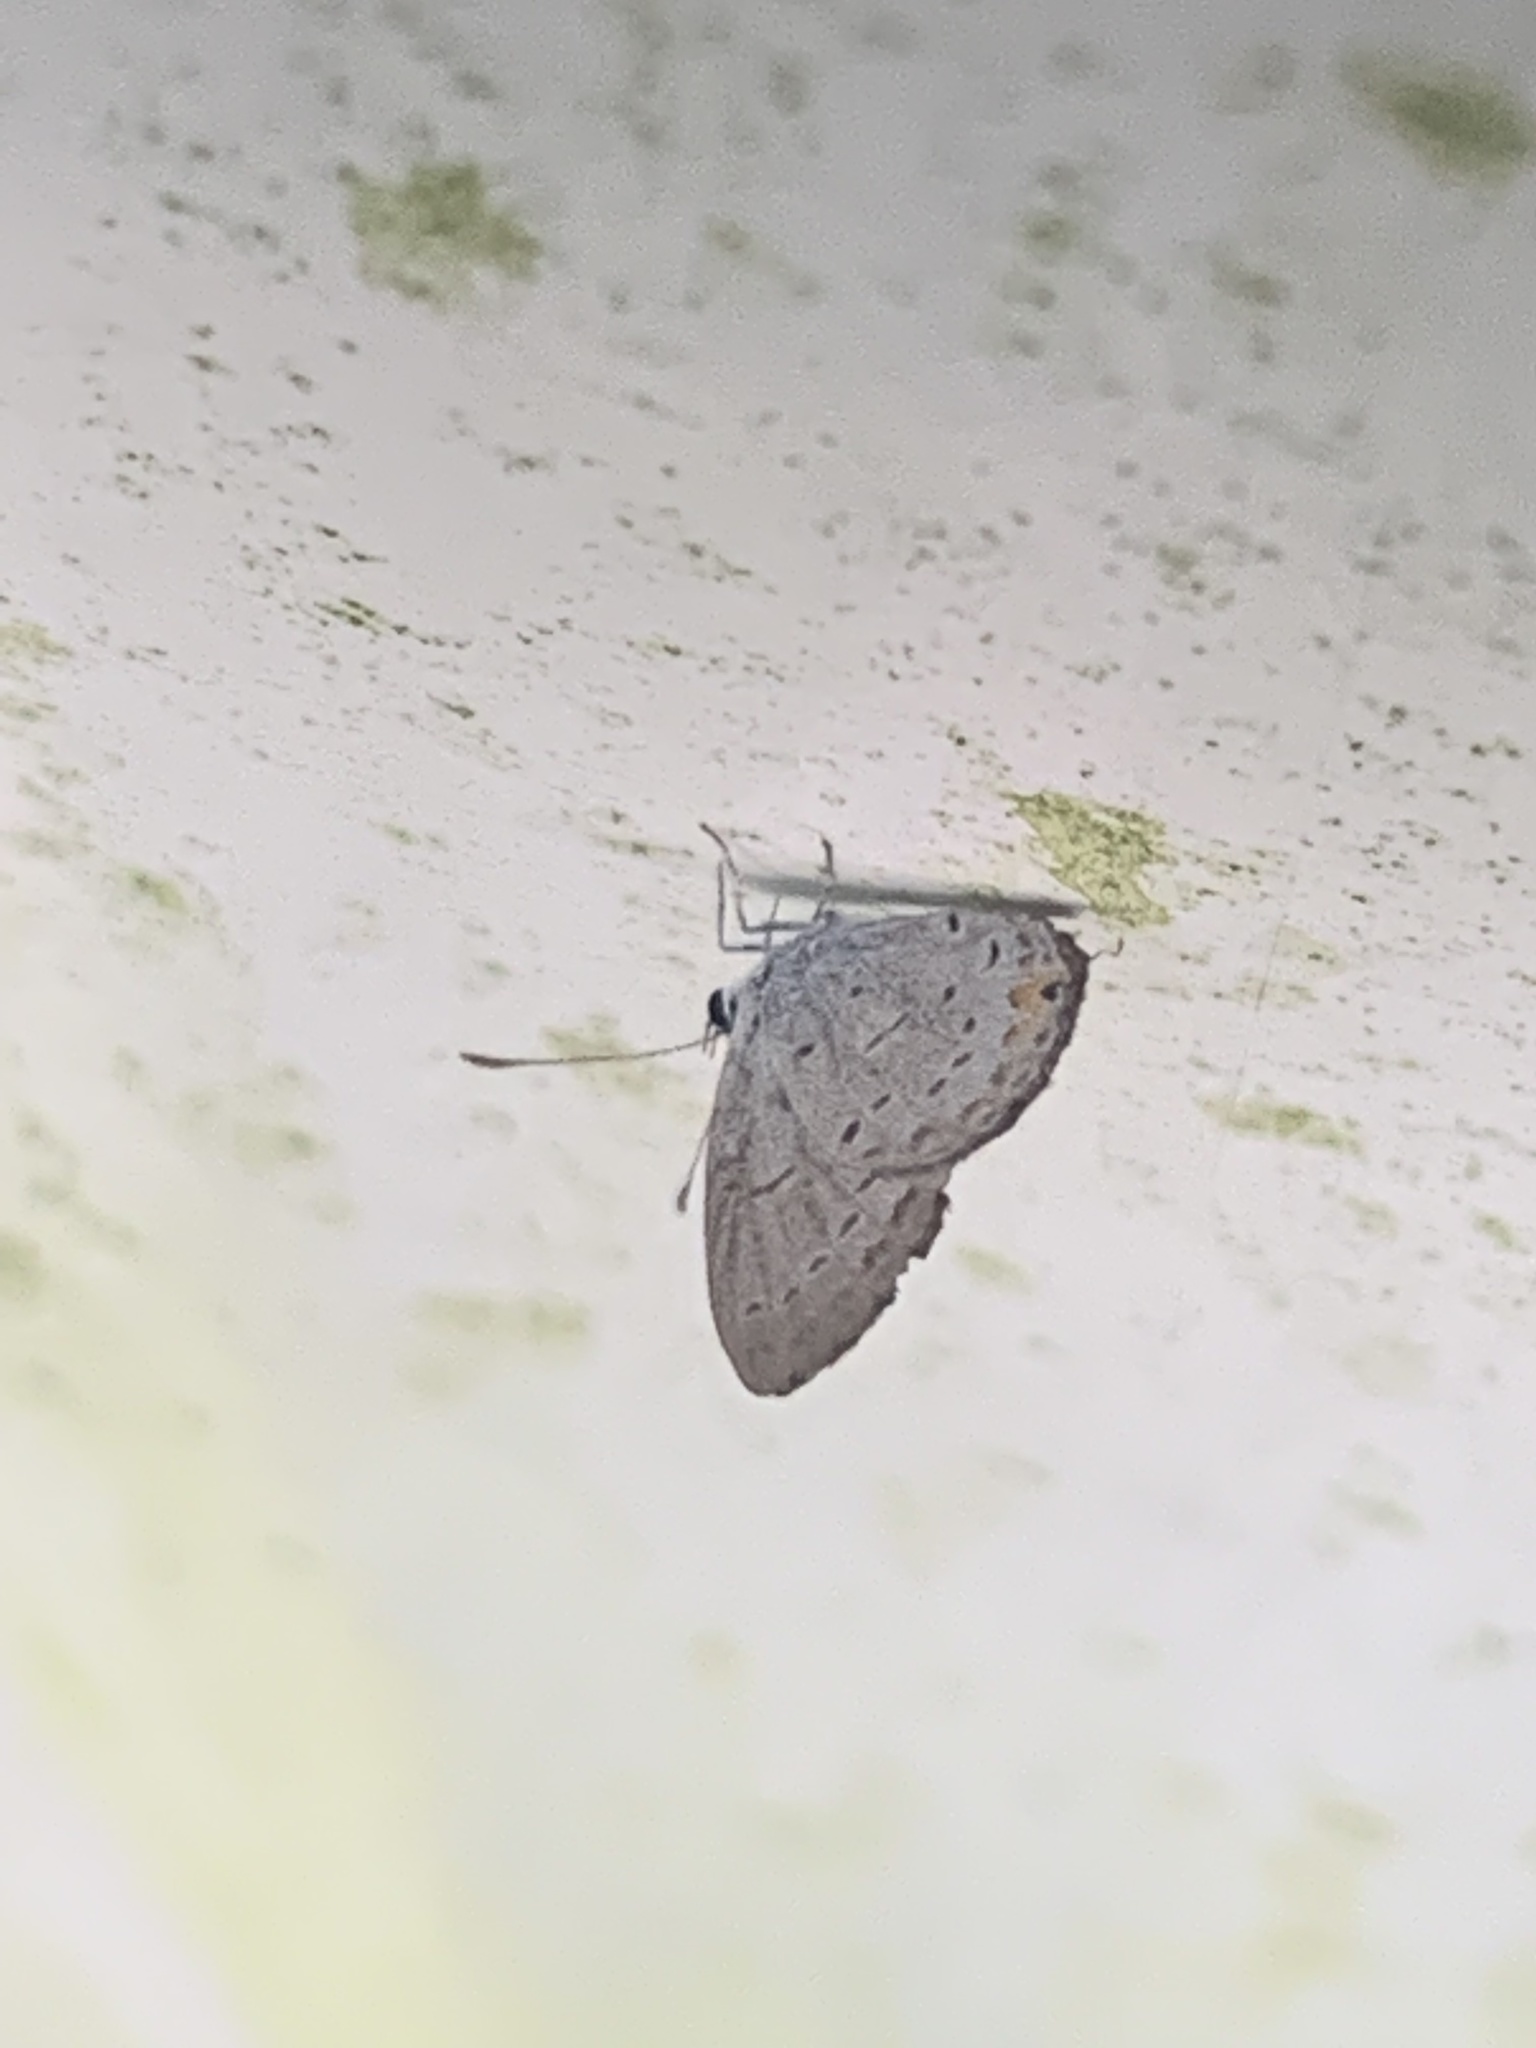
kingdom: Animalia
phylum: Arthropoda
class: Insecta
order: Lepidoptera
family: Lycaenidae
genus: Elkalyce
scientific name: Elkalyce comyntas
